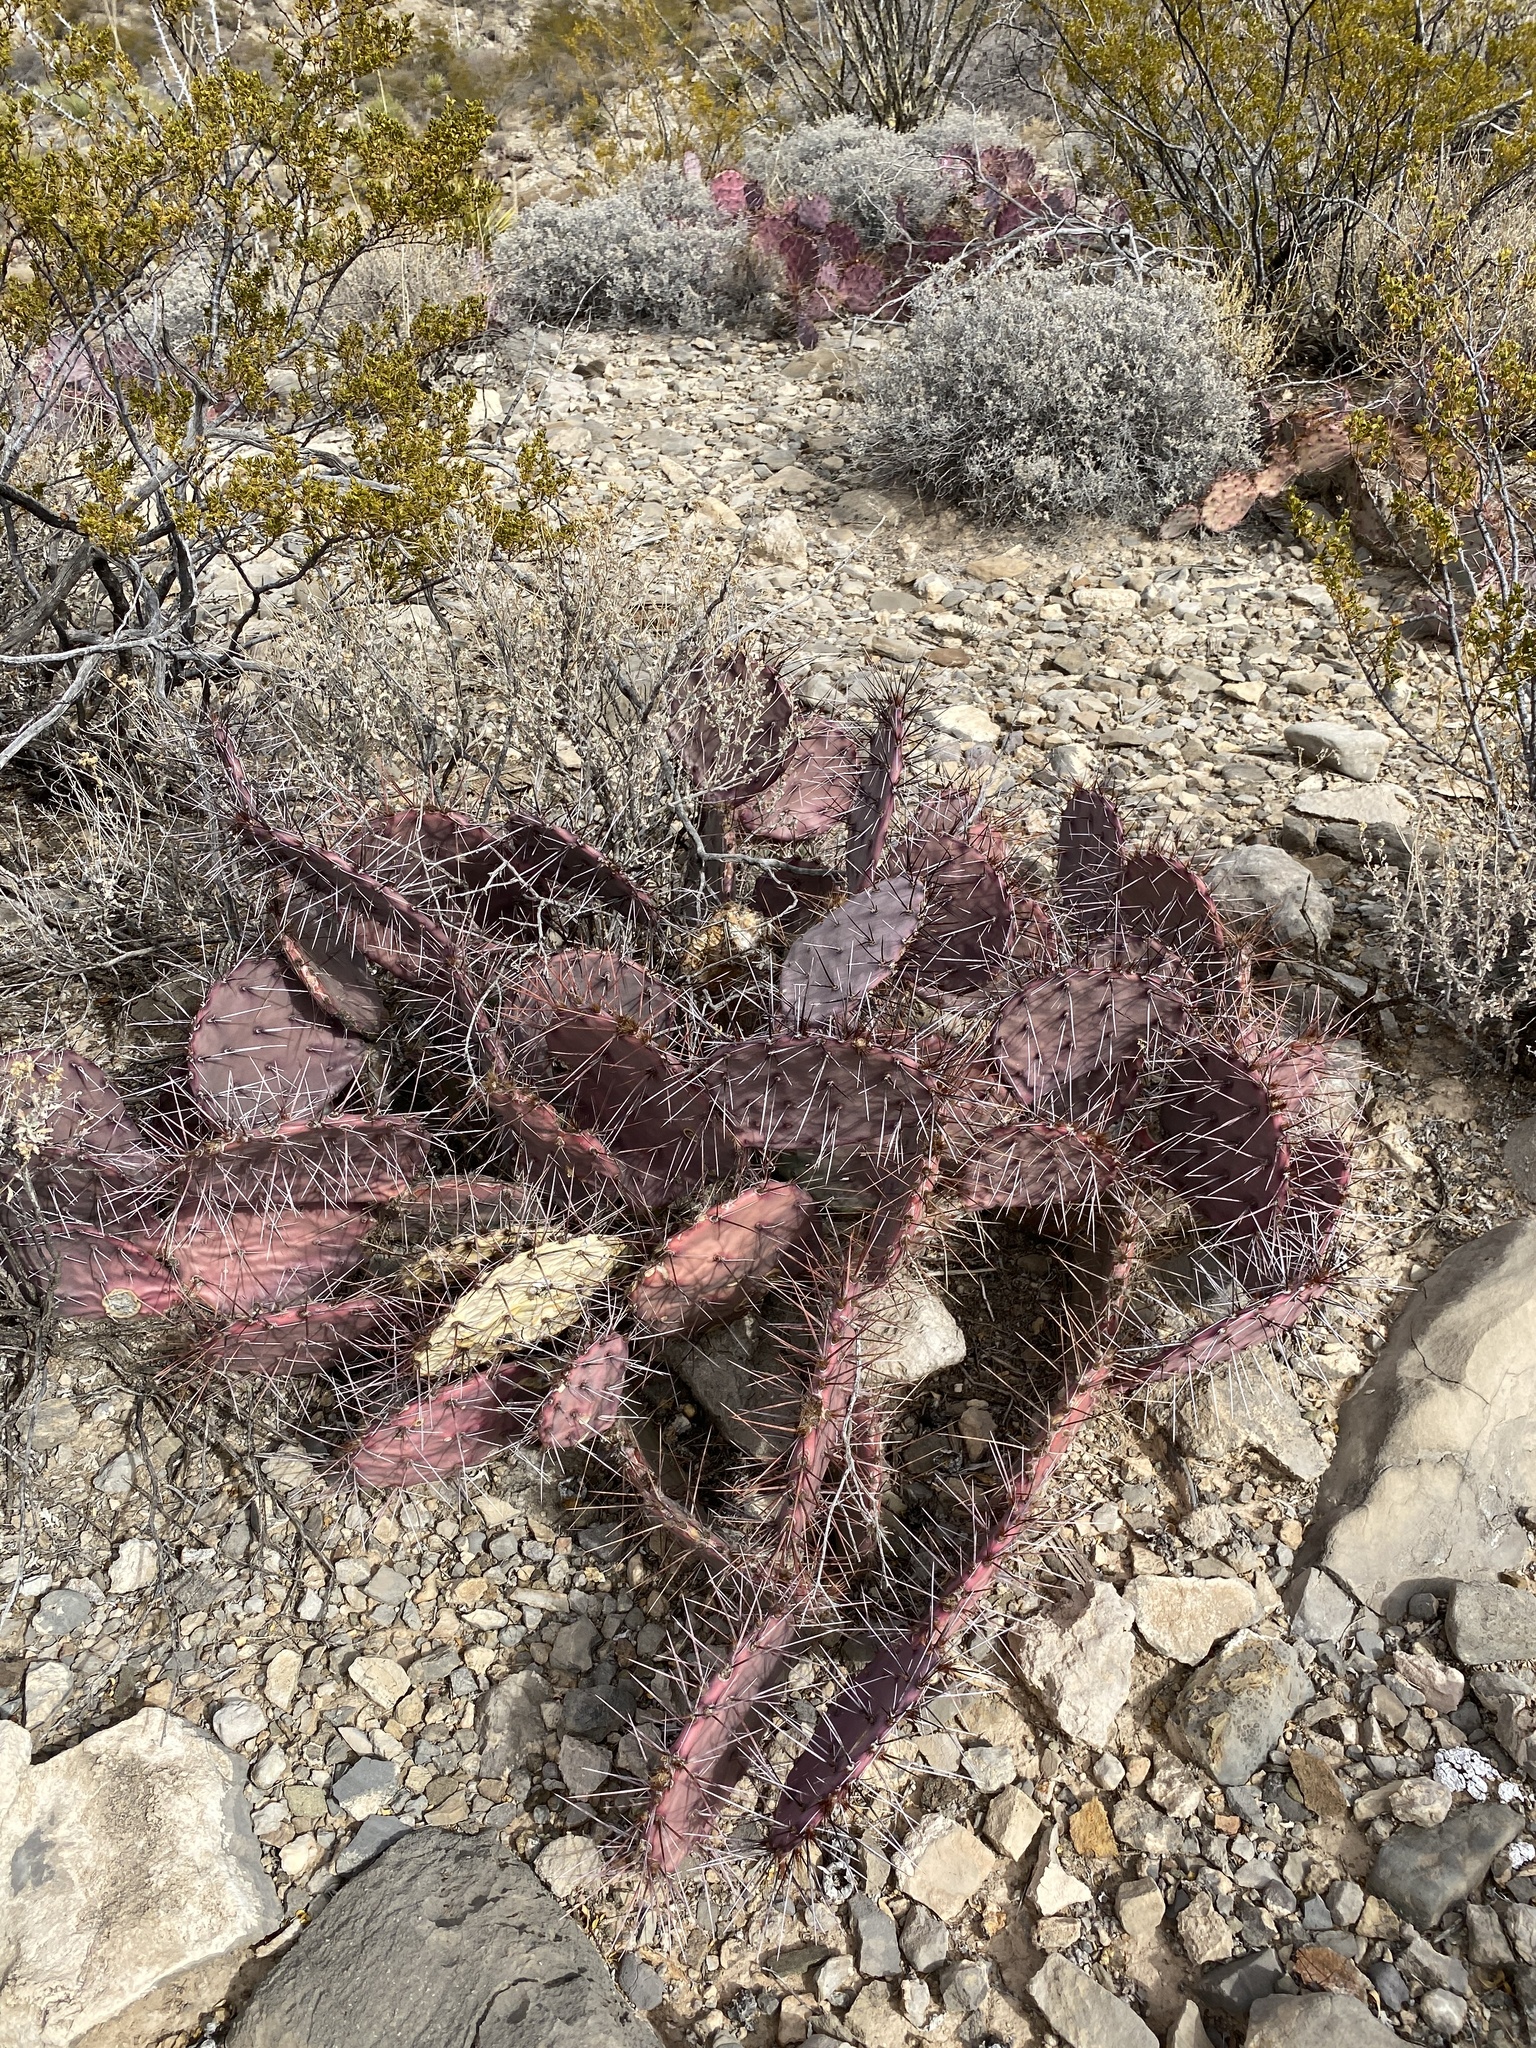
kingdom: Plantae
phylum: Tracheophyta
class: Magnoliopsida
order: Caryophyllales
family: Cactaceae
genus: Opuntia
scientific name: Opuntia macrocentra
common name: Purple prickly-pear
